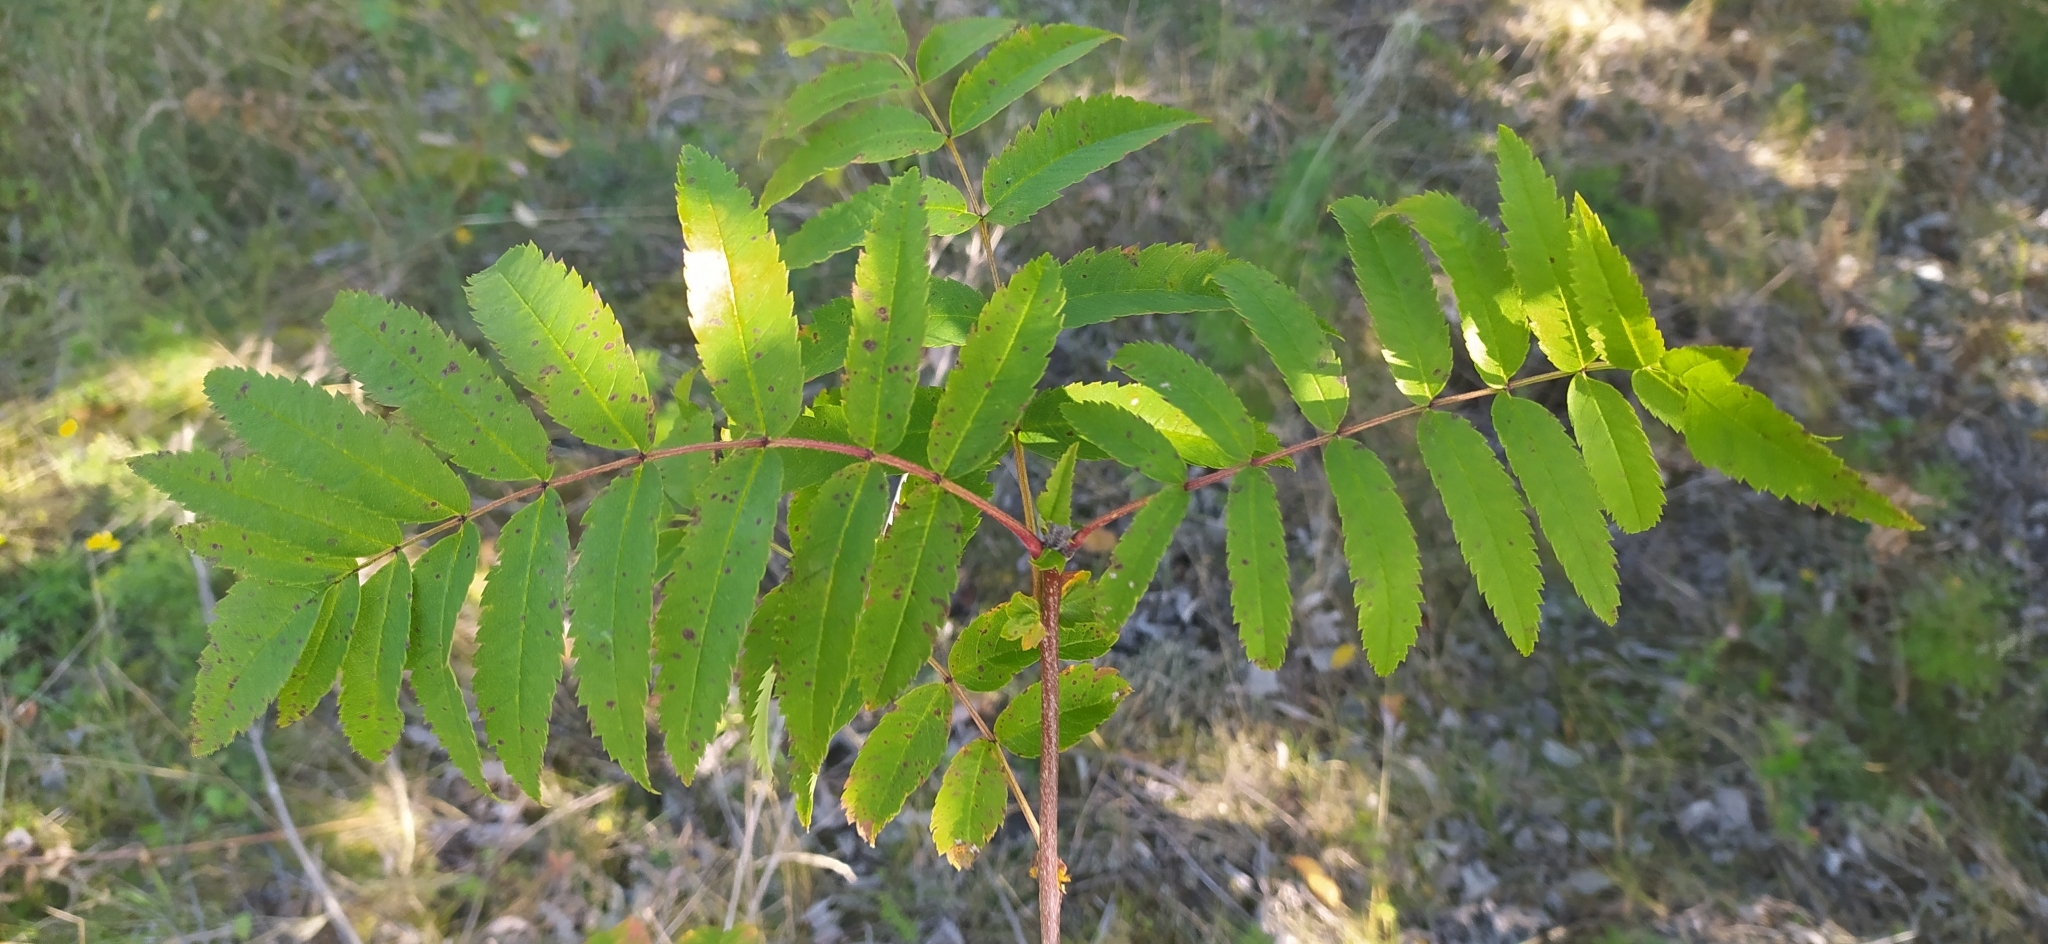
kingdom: Plantae
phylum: Tracheophyta
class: Magnoliopsida
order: Rosales
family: Rosaceae
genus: Sorbus
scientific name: Sorbus aucuparia
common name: Rowan
